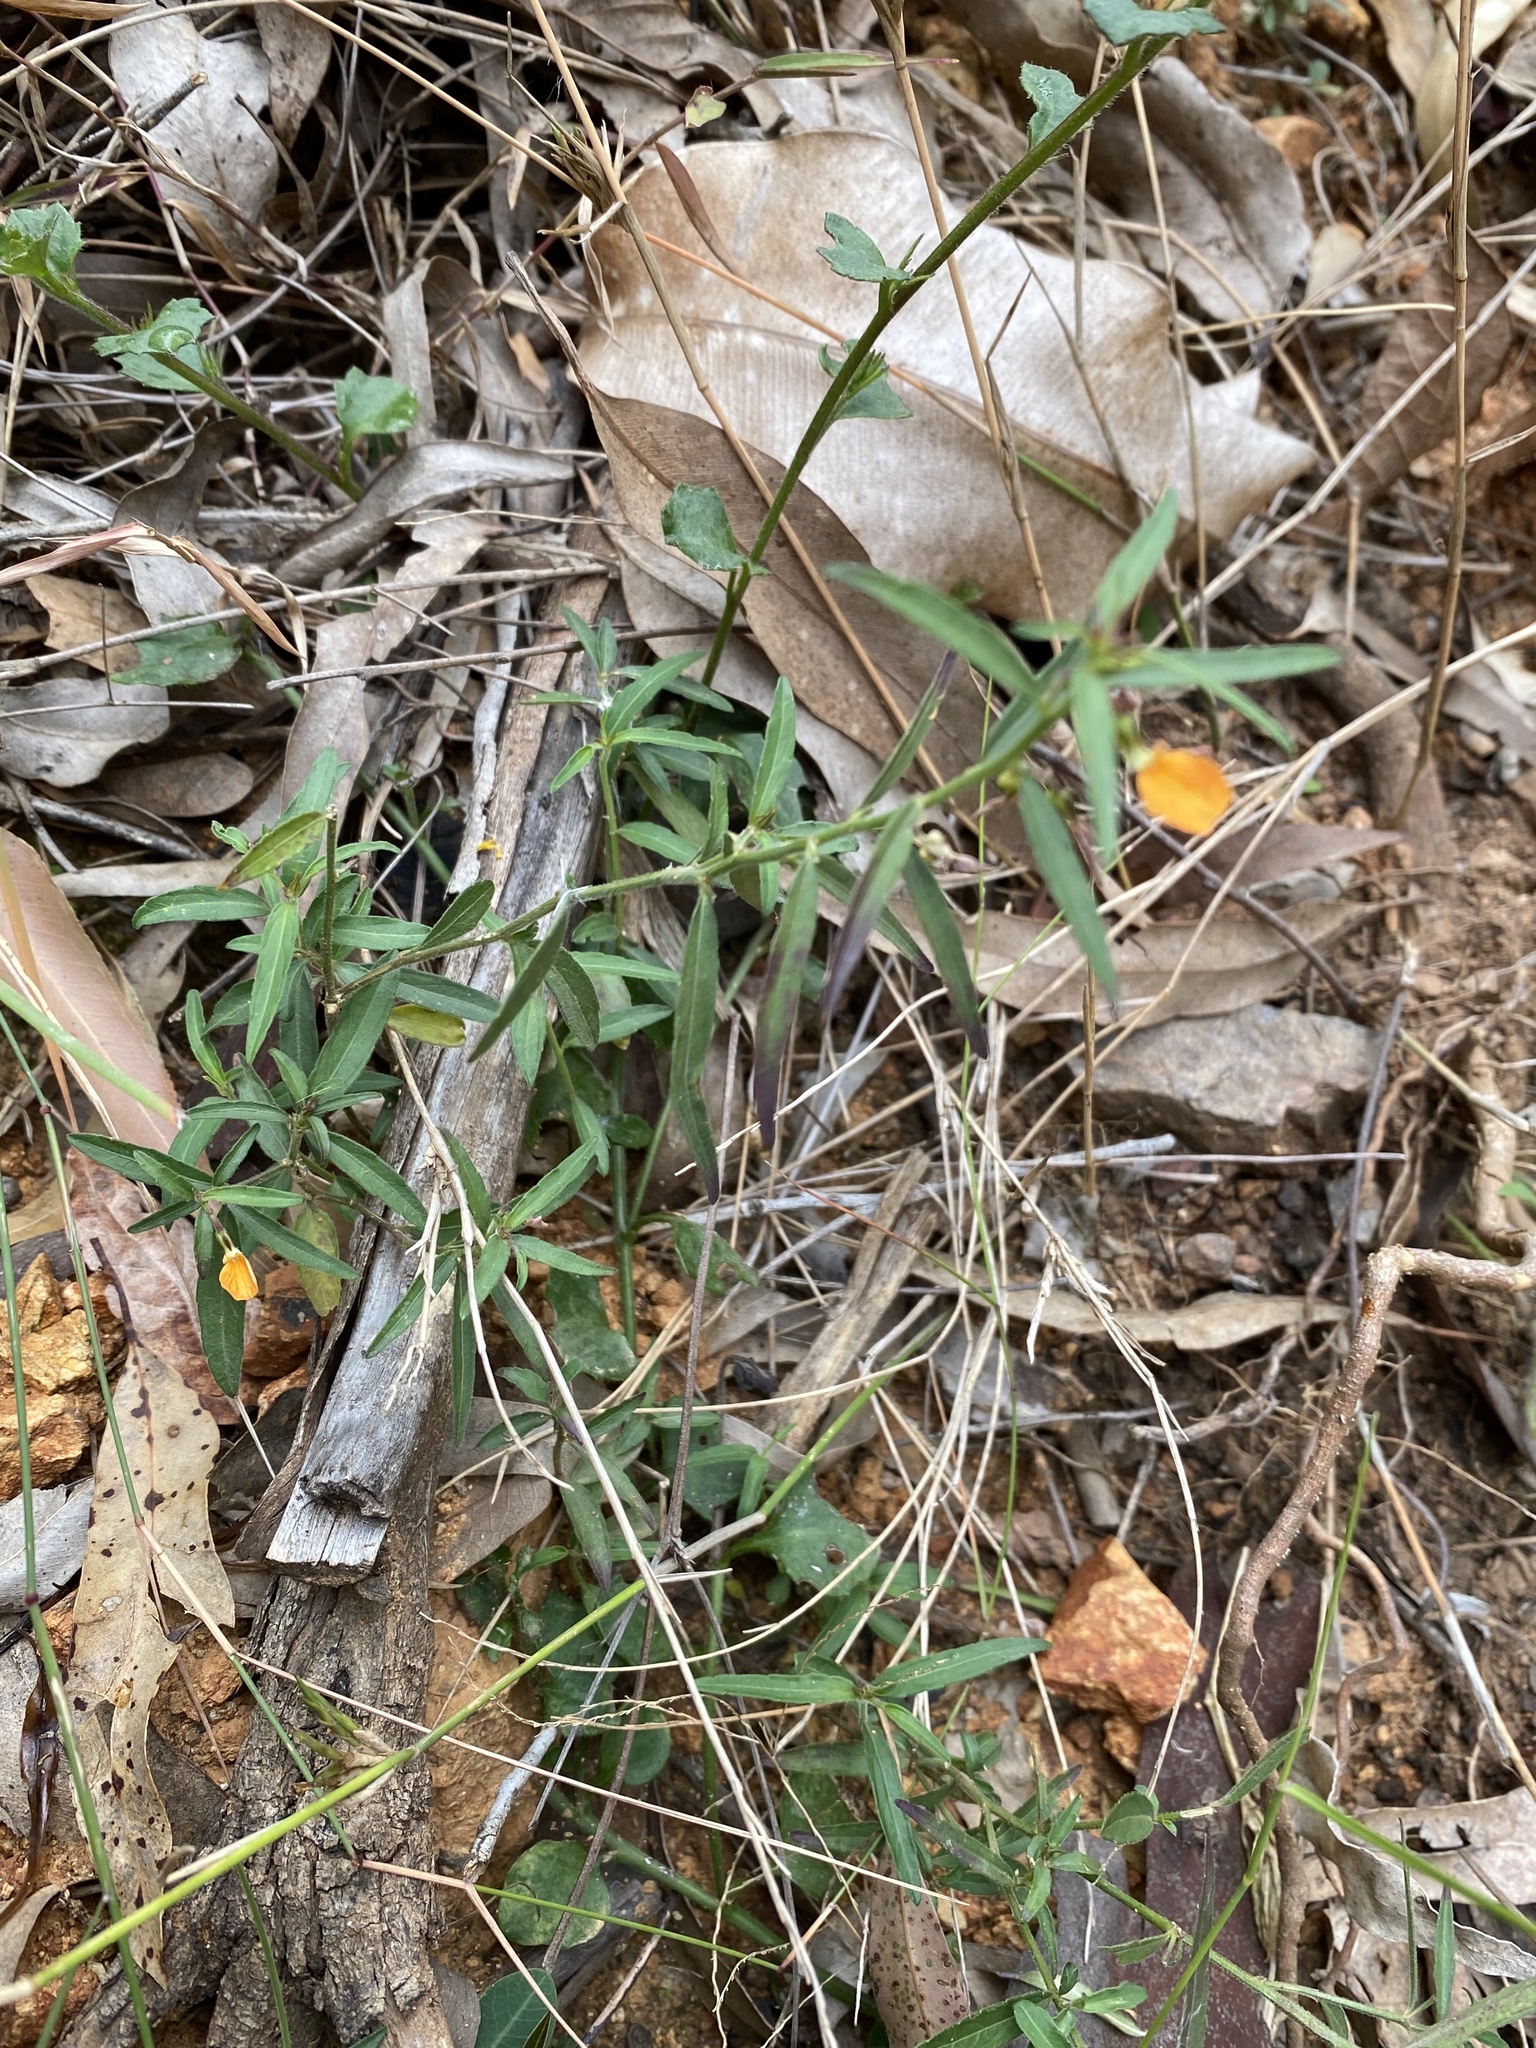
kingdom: Plantae
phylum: Tracheophyta
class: Magnoliopsida
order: Malpighiales
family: Violaceae
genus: Pigea
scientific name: Pigea stellarioides
